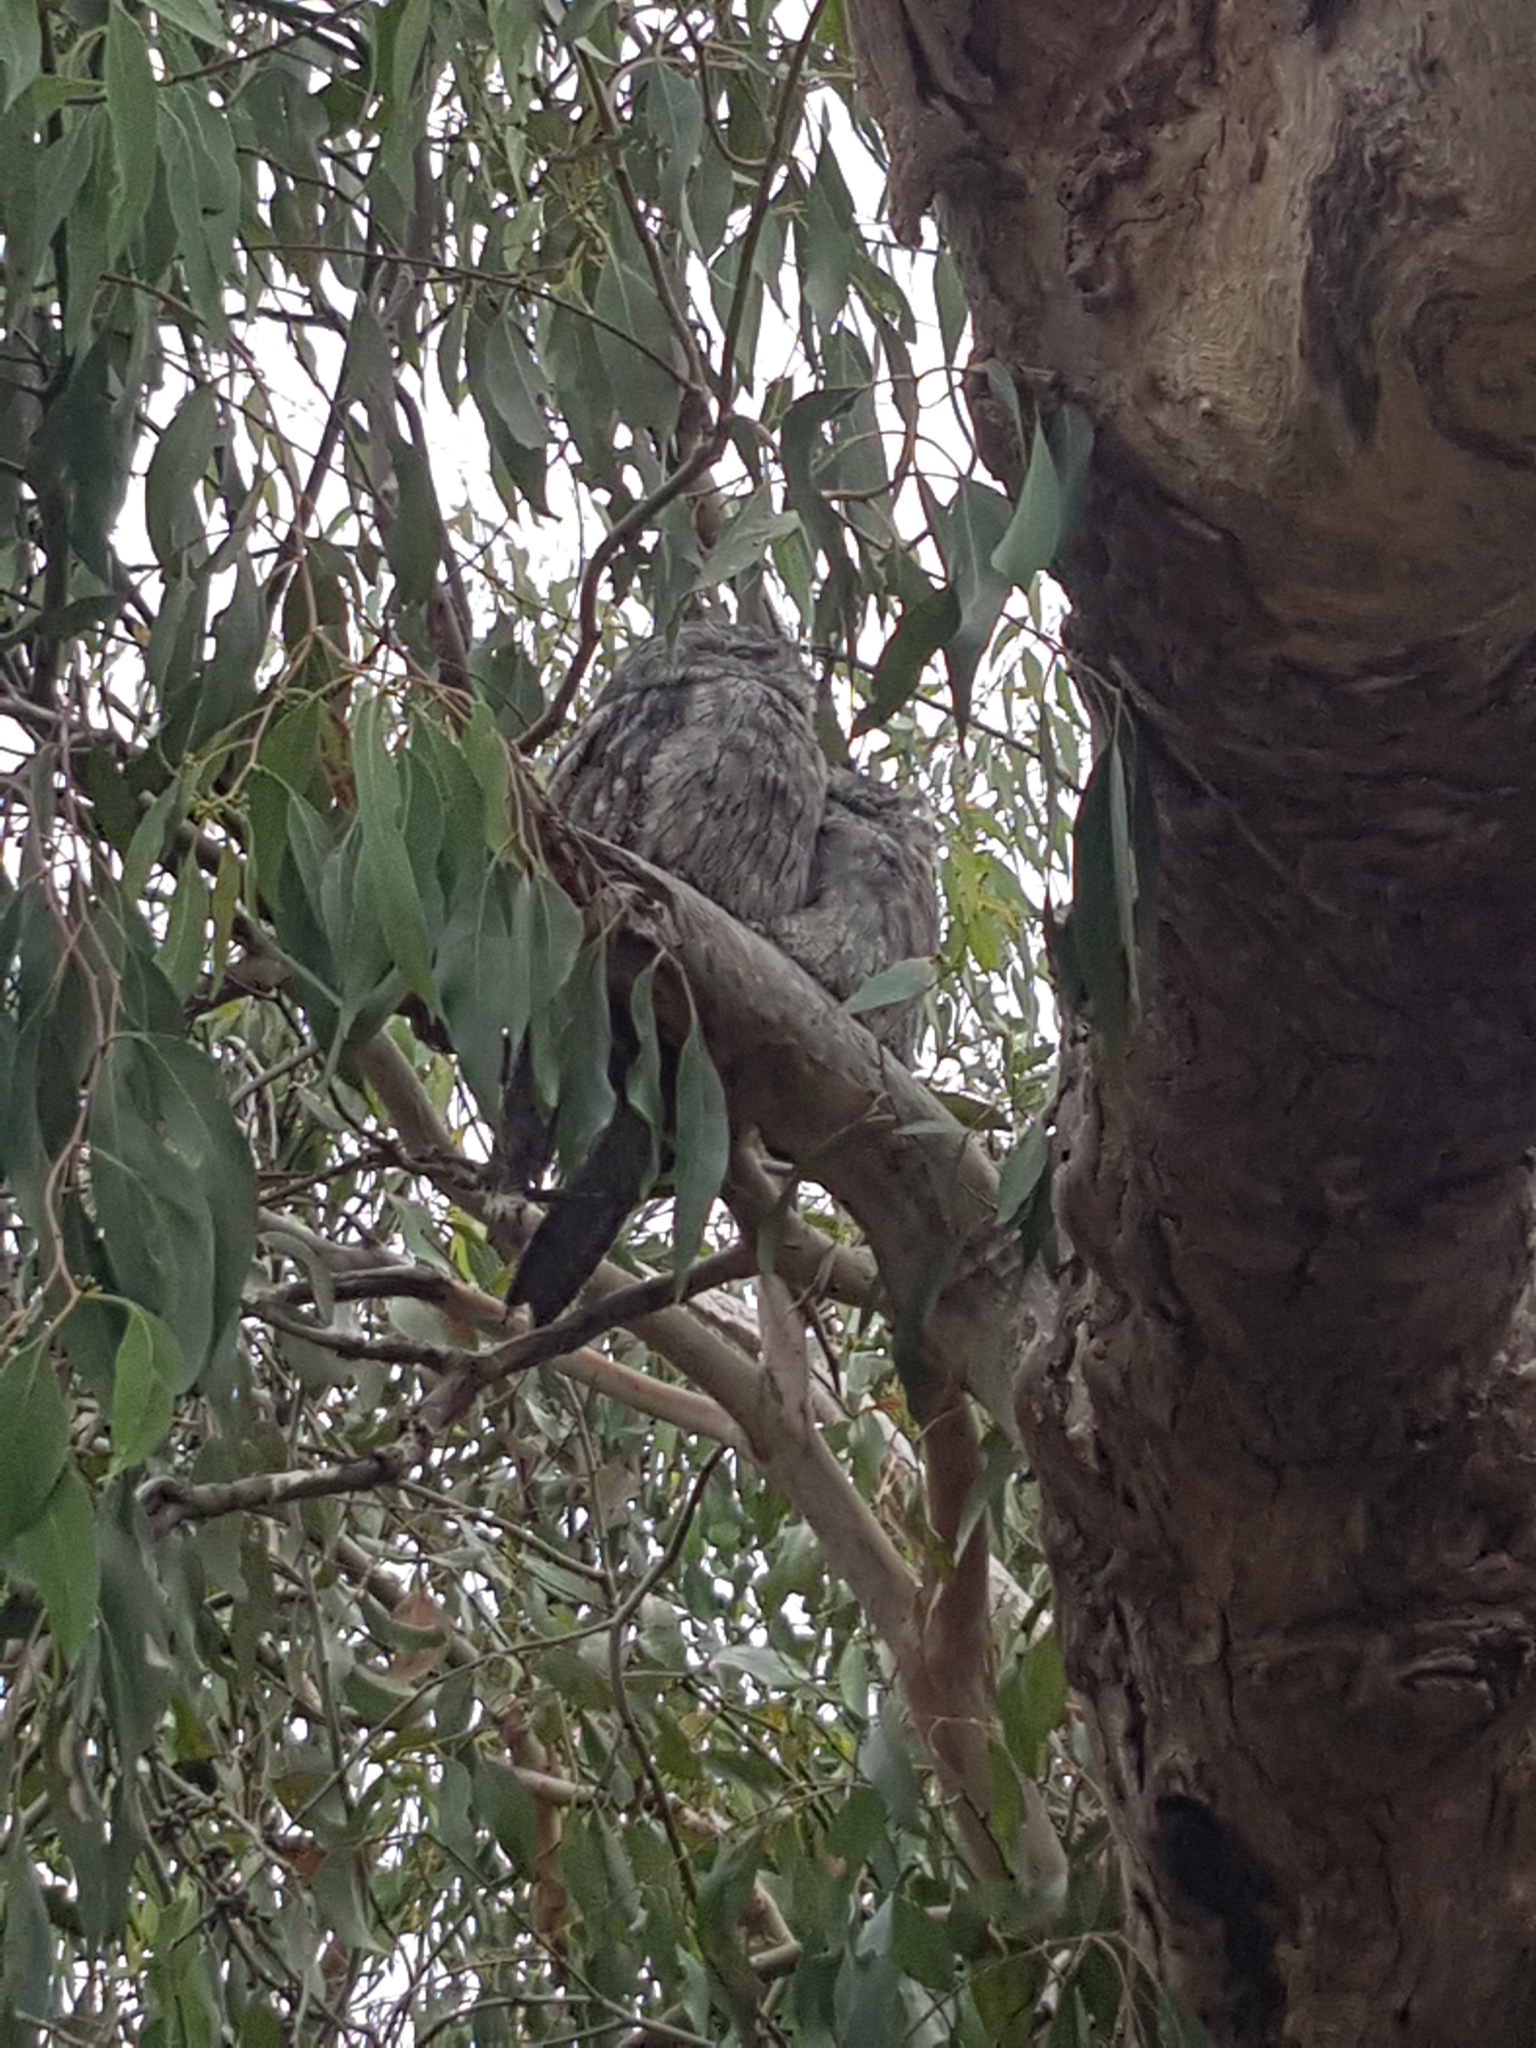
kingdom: Animalia
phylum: Chordata
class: Aves
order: Caprimulgiformes
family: Podargidae
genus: Podargus
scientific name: Podargus strigoides
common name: Tawny frogmouth
